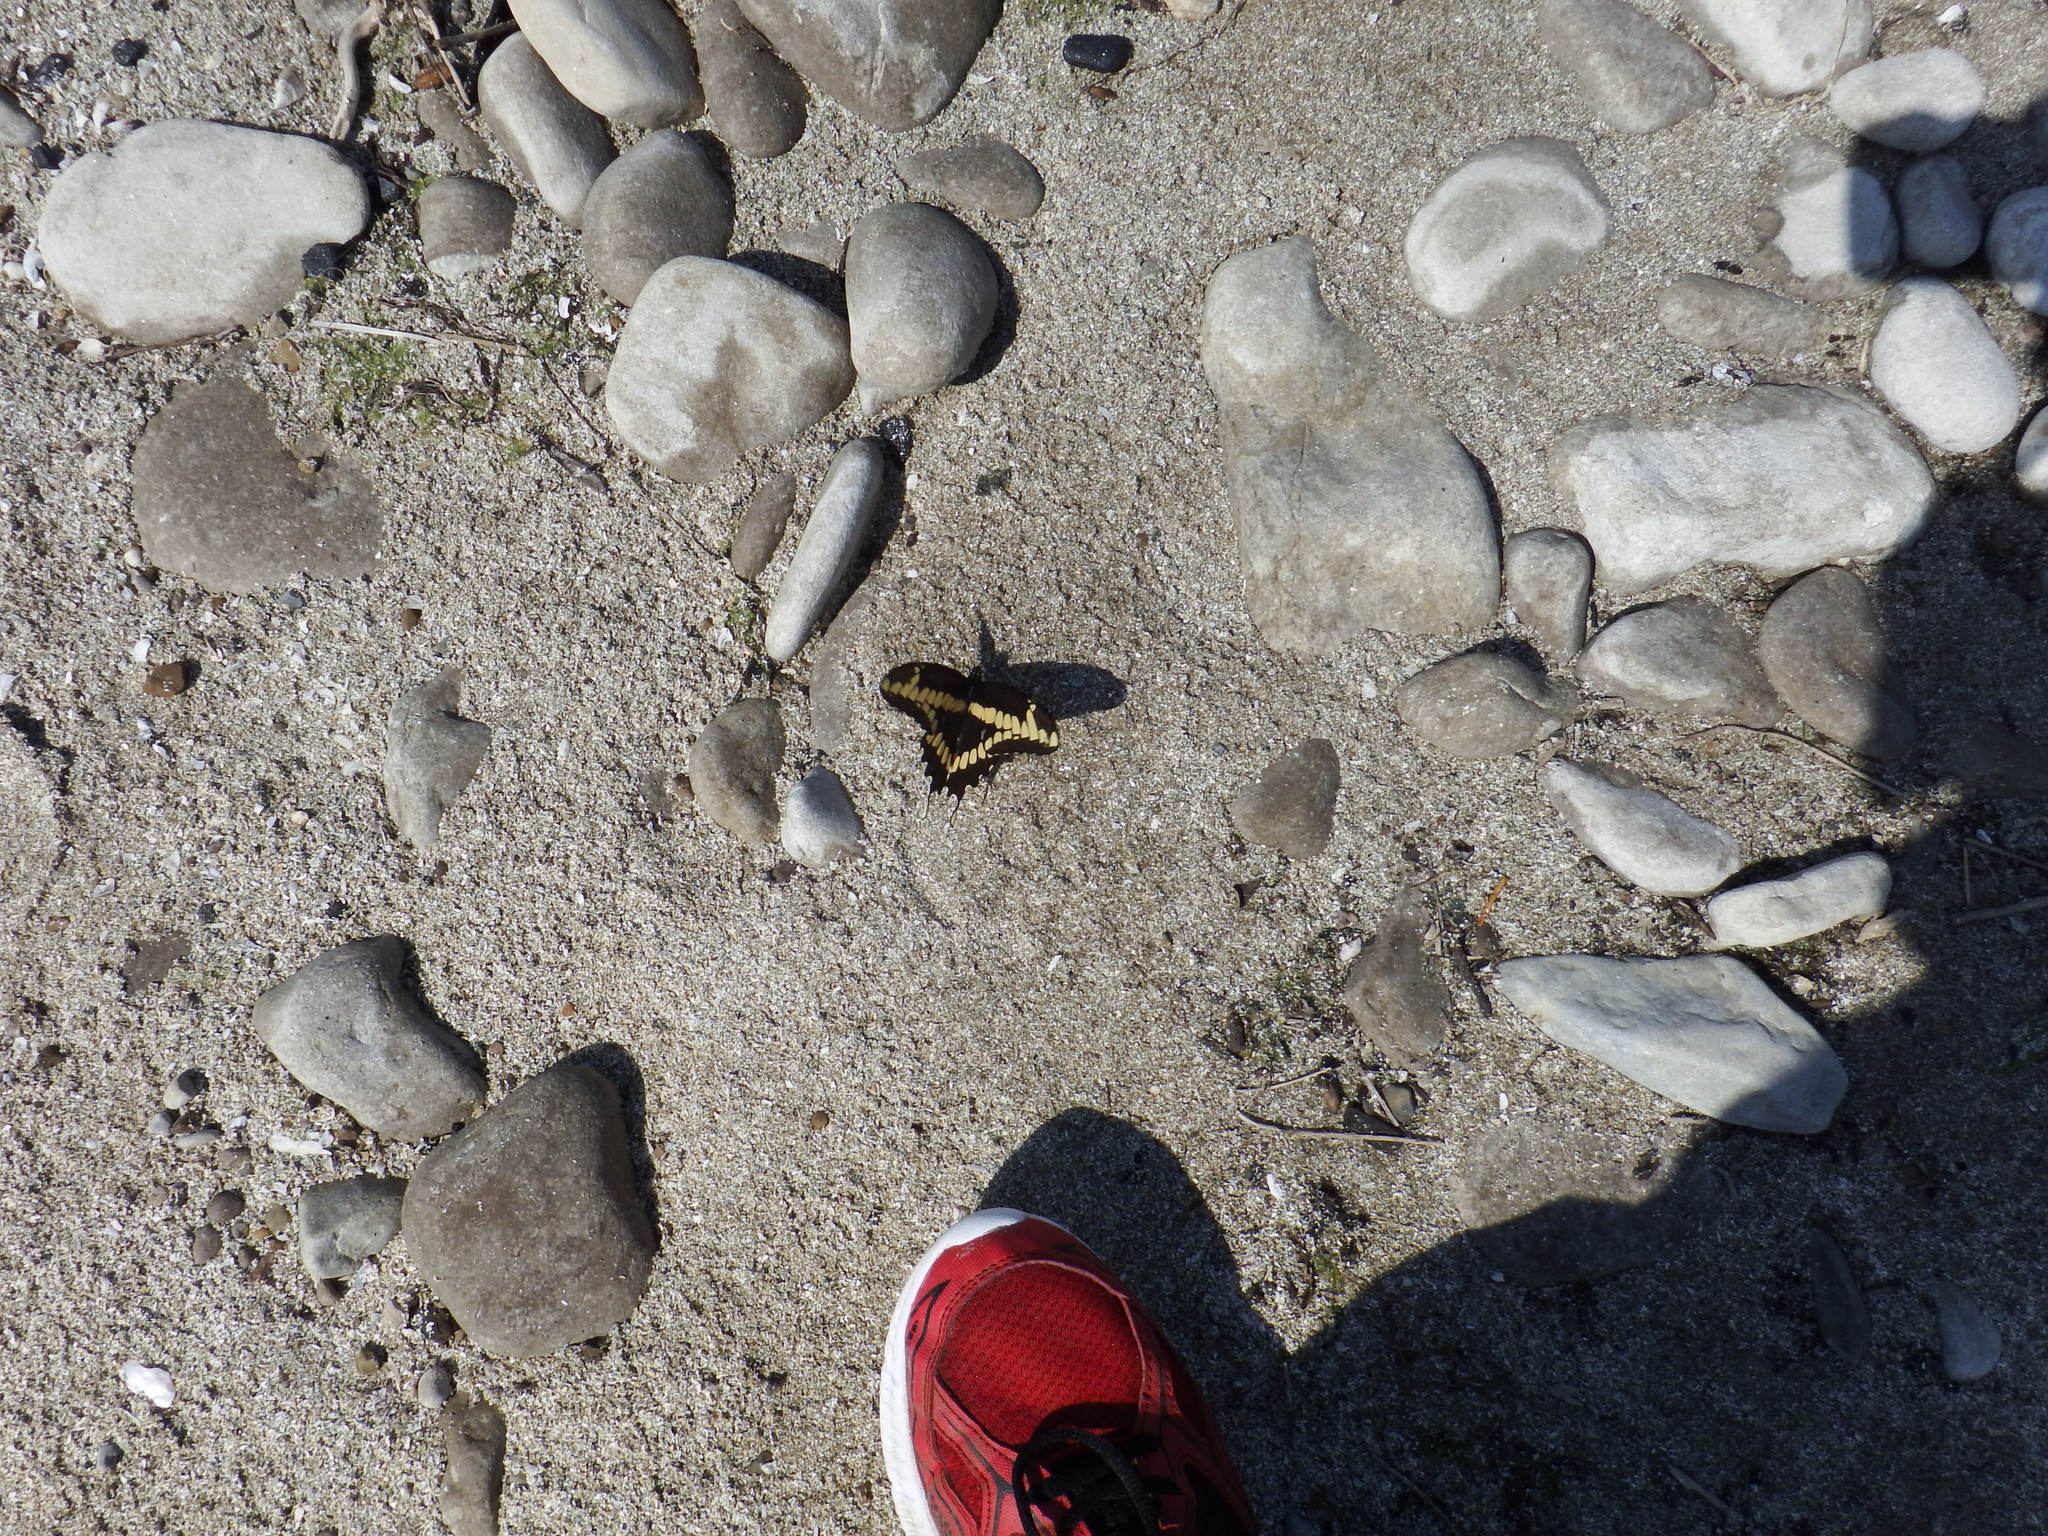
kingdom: Animalia
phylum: Arthropoda
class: Insecta
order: Lepidoptera
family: Papilionidae
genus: Papilio
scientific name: Papilio cresphontes
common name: Giant swallowtail
